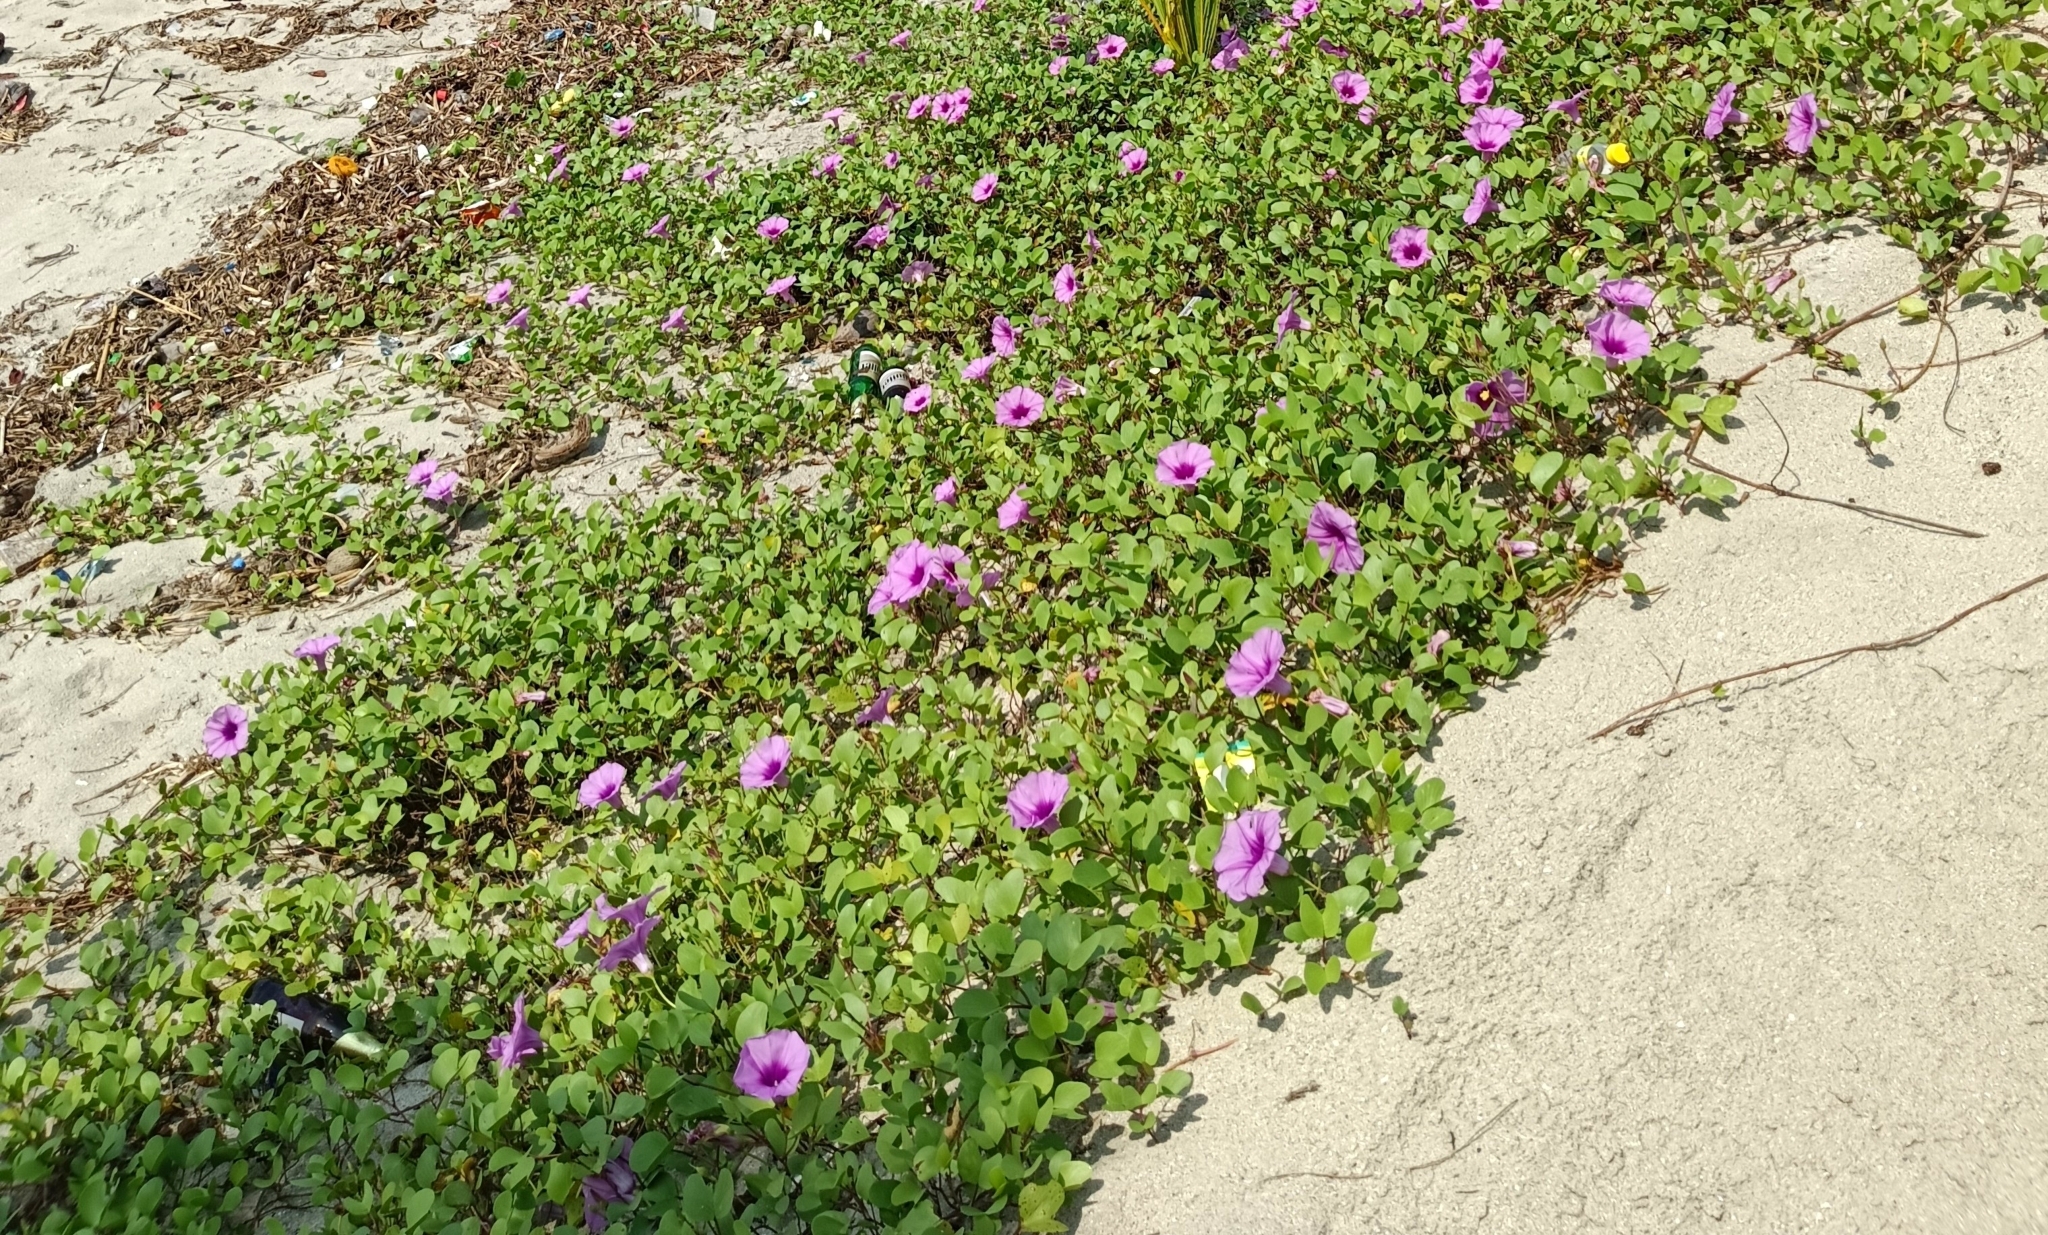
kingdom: Plantae
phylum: Tracheophyta
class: Magnoliopsida
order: Solanales
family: Convolvulaceae
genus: Ipomoea
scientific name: Ipomoea pes-caprae
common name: Beach morning glory
